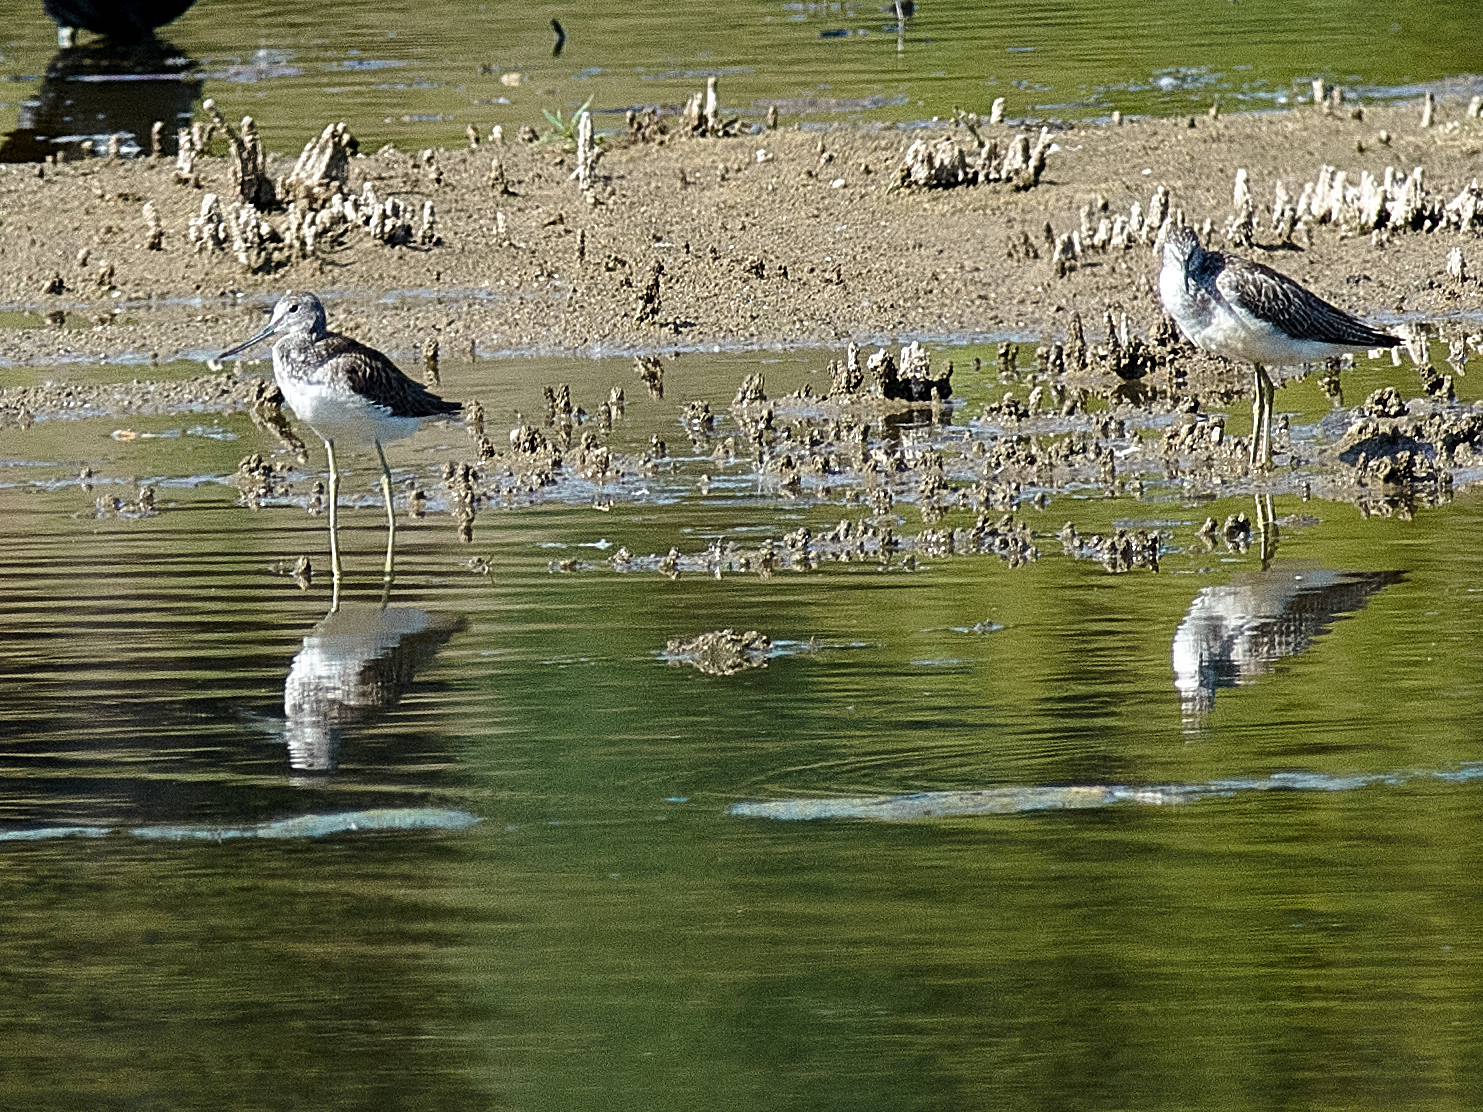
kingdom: Animalia
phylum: Chordata
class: Aves
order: Charadriiformes
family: Scolopacidae
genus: Tringa
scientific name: Tringa nebularia
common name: Common greenshank
